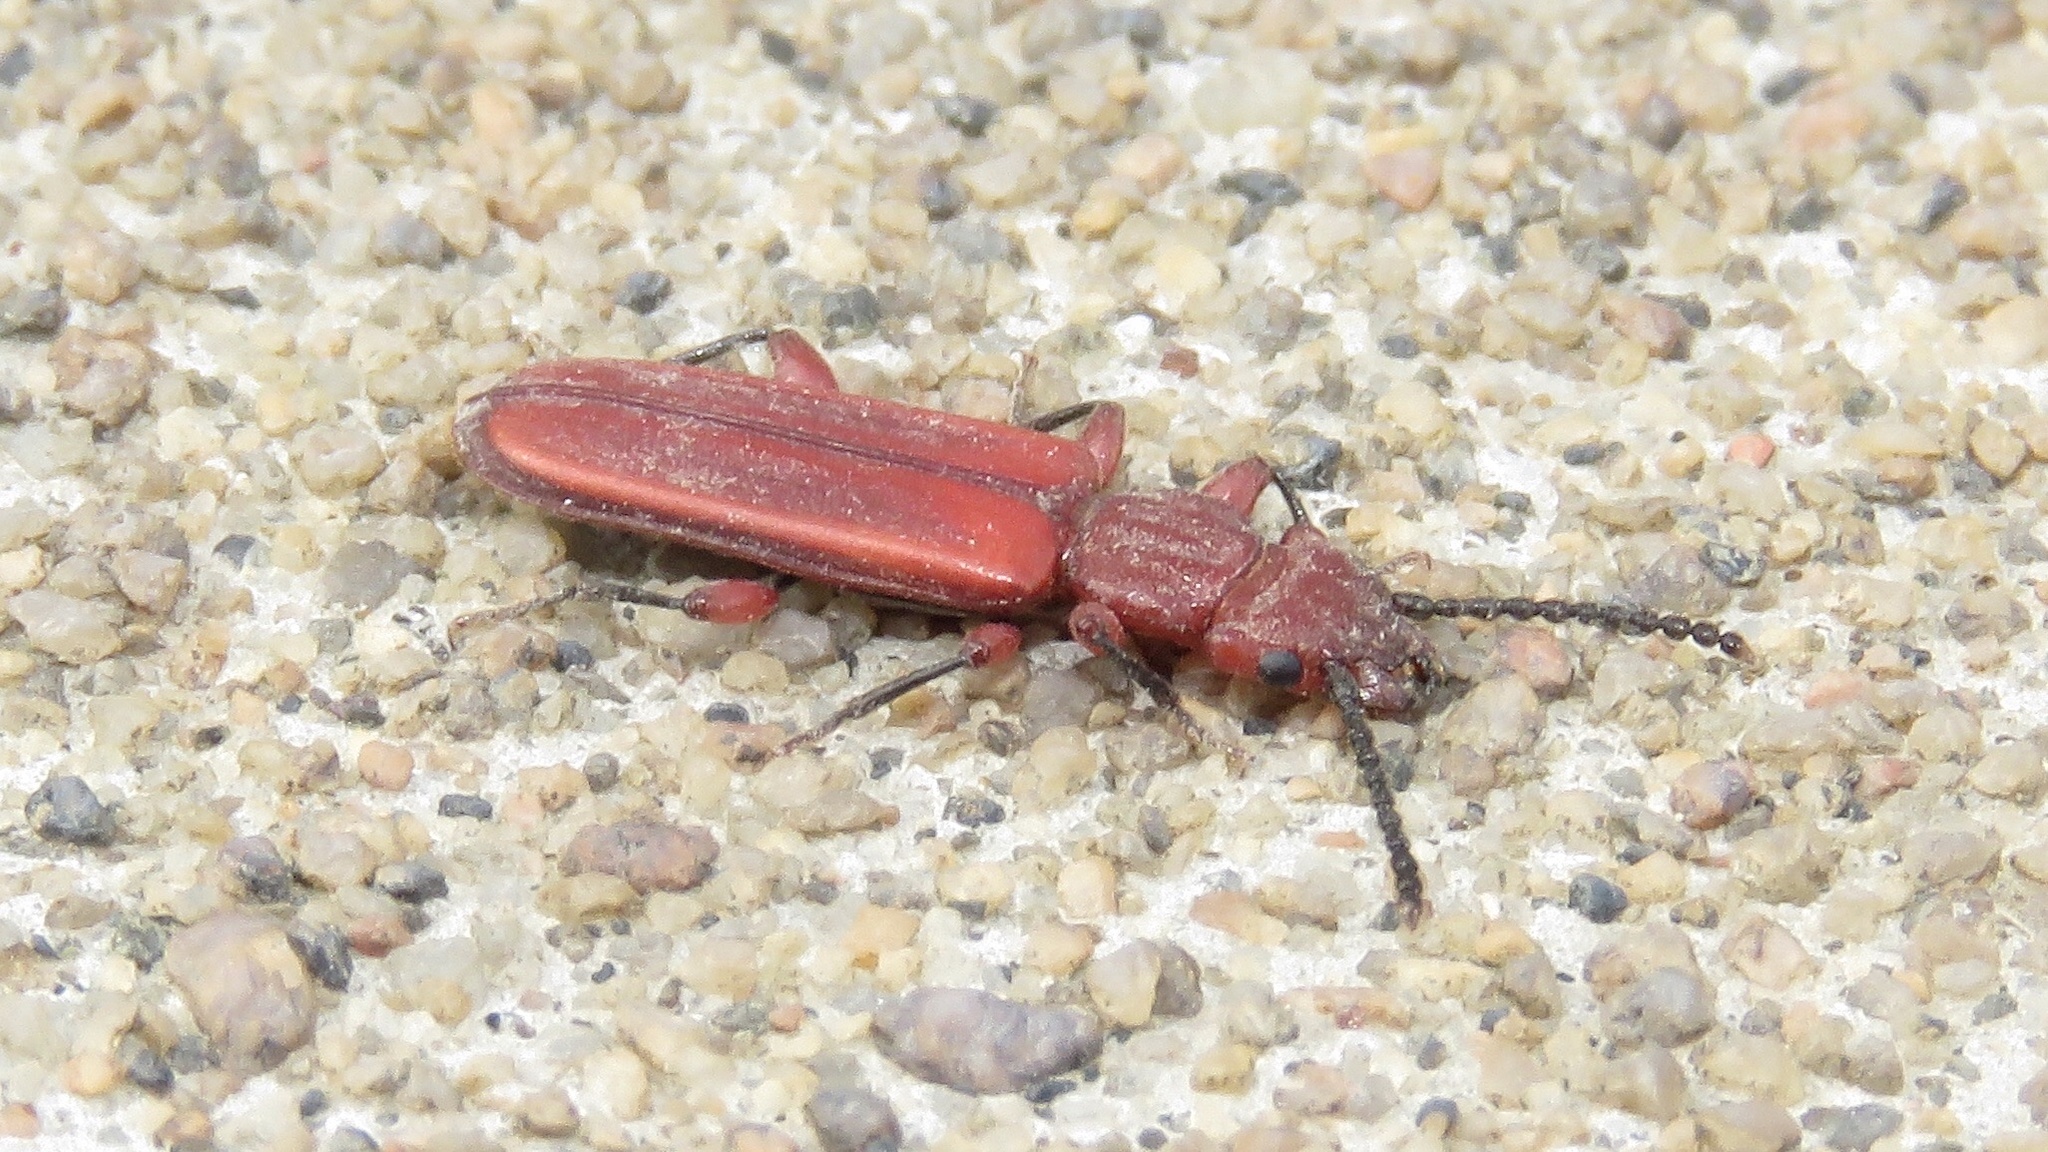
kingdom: Animalia
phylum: Arthropoda
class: Insecta
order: Coleoptera
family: Cucujidae
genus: Cucujus
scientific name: Cucujus clavipes
